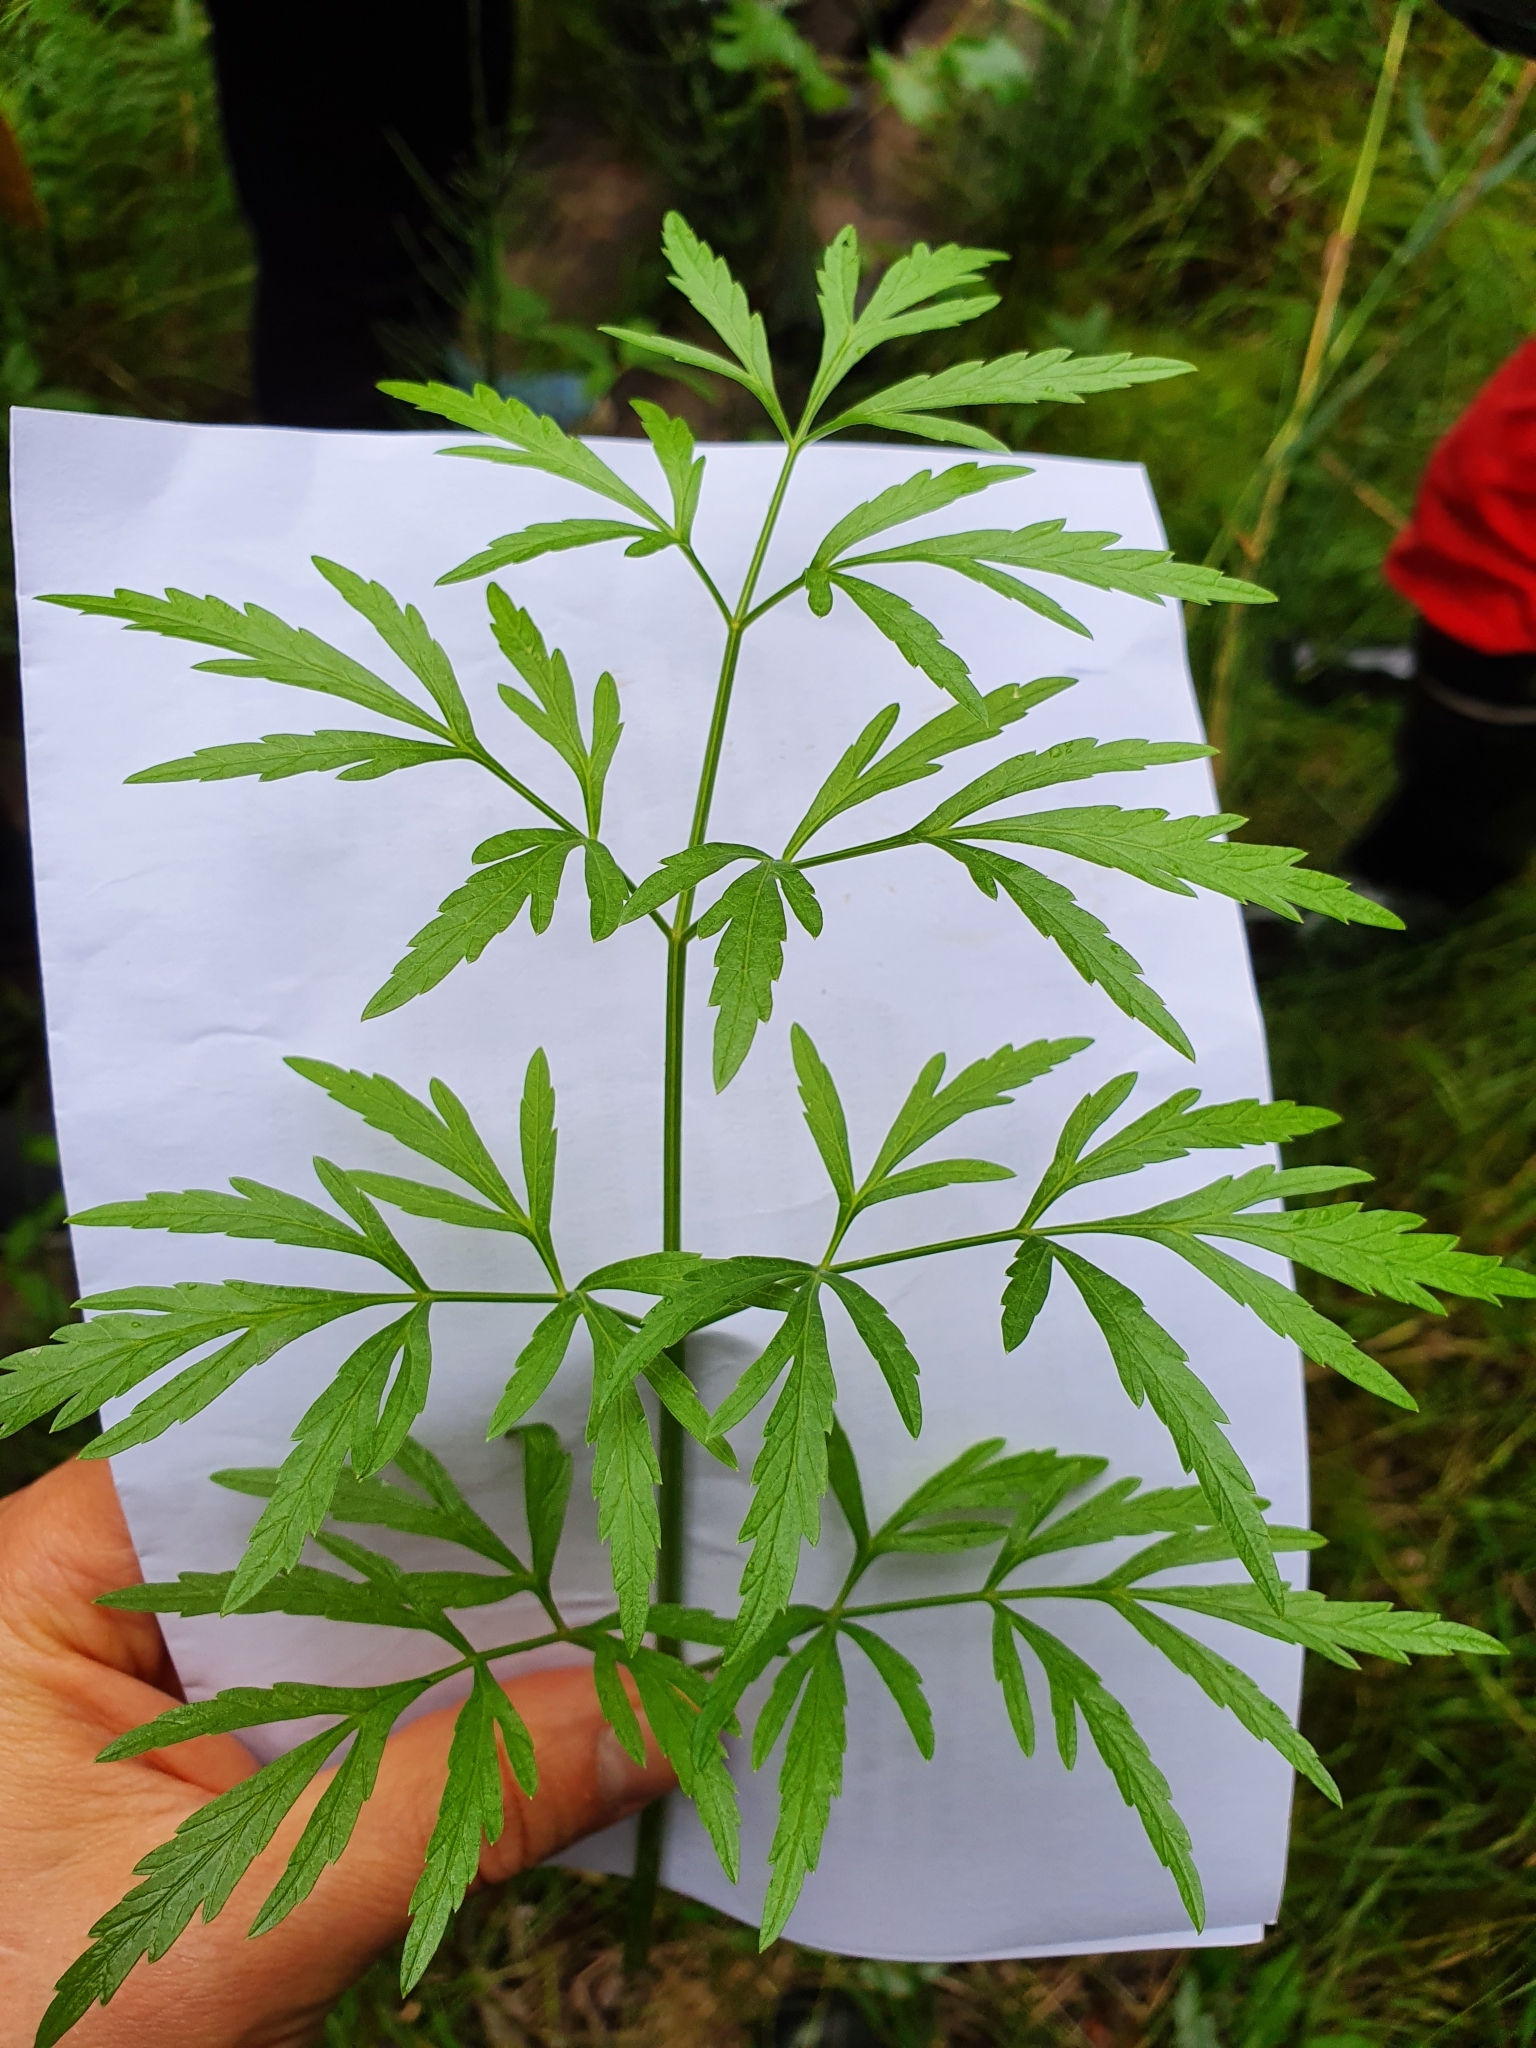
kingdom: Plantae
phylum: Tracheophyta
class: Magnoliopsida
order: Apiales
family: Apiaceae
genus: Cicuta
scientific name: Cicuta virosa
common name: Cowbane
